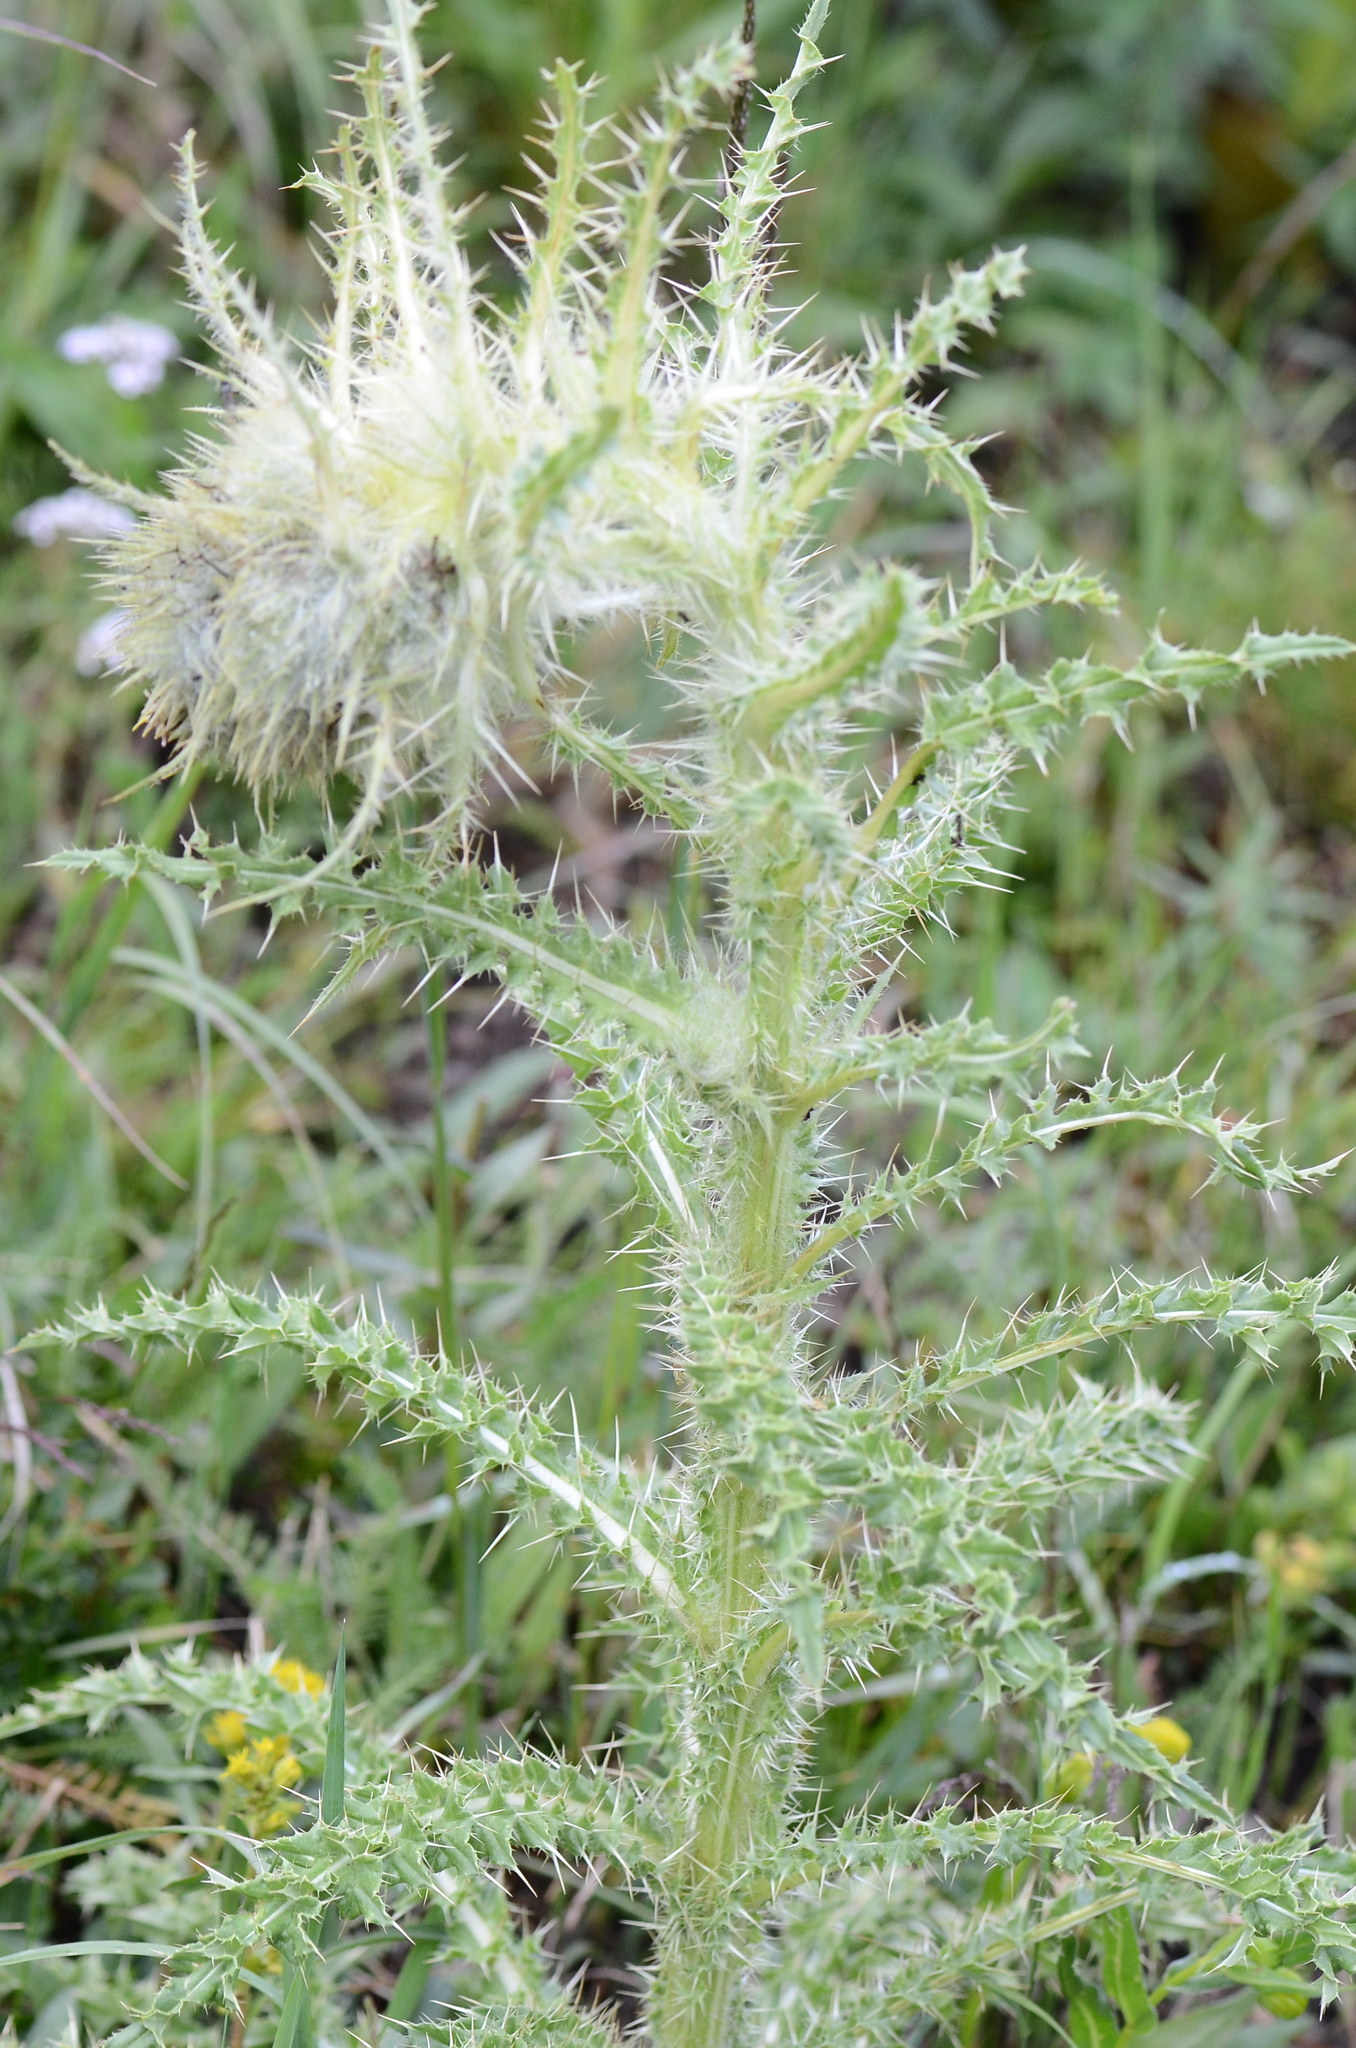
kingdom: Plantae
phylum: Tracheophyta
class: Magnoliopsida
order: Asterales
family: Asteraceae
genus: Cirsium
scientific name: Cirsium funkiae
